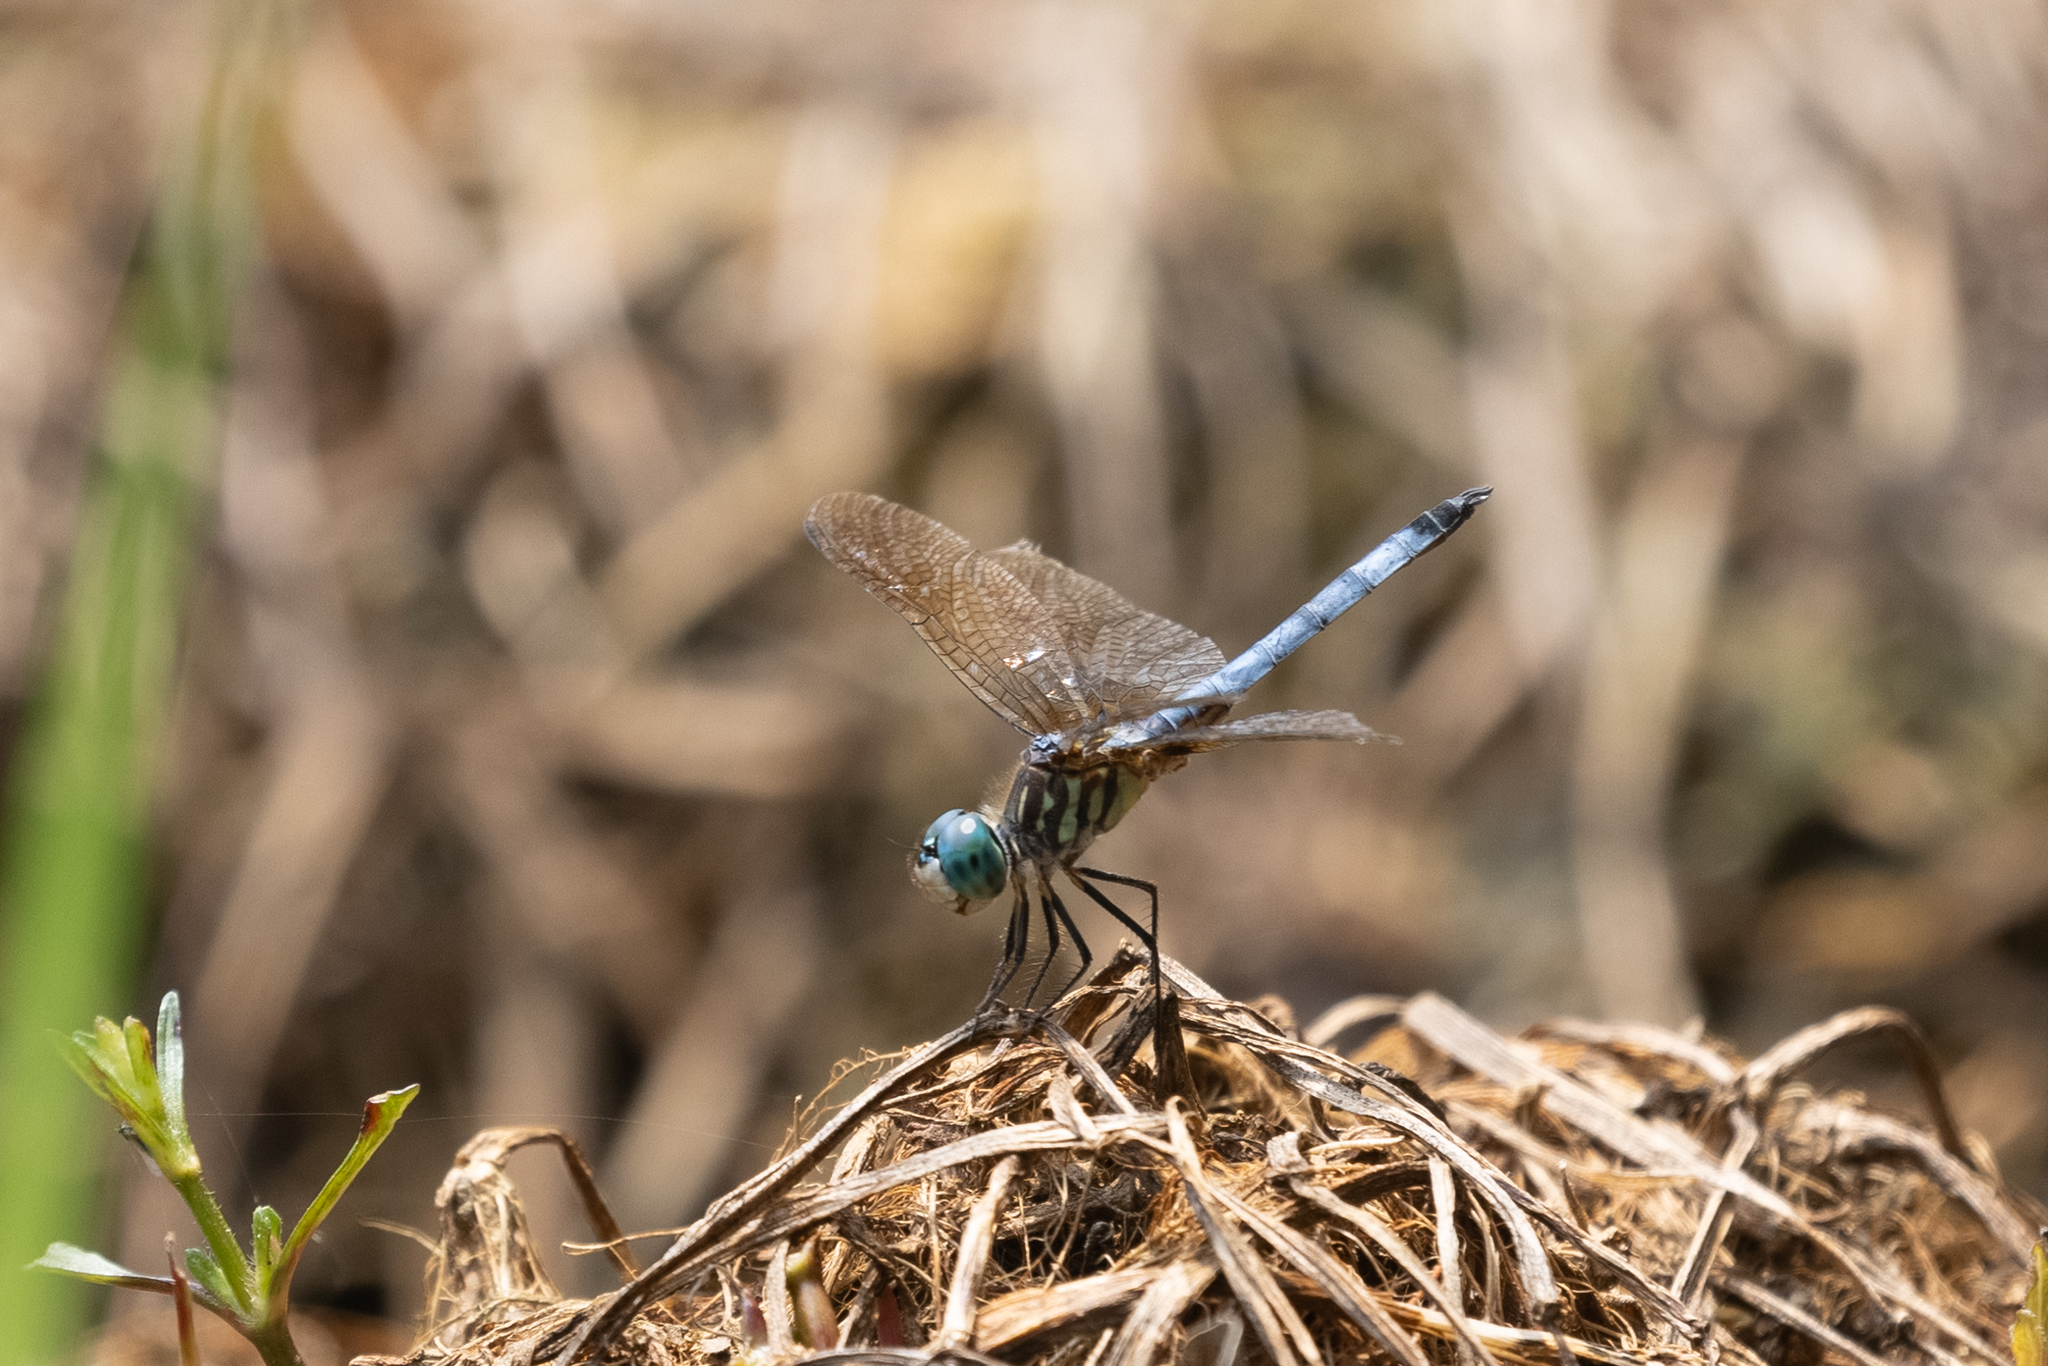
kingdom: Animalia
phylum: Arthropoda
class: Insecta
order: Odonata
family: Libellulidae
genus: Pachydiplax
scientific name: Pachydiplax longipennis
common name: Blue dasher
